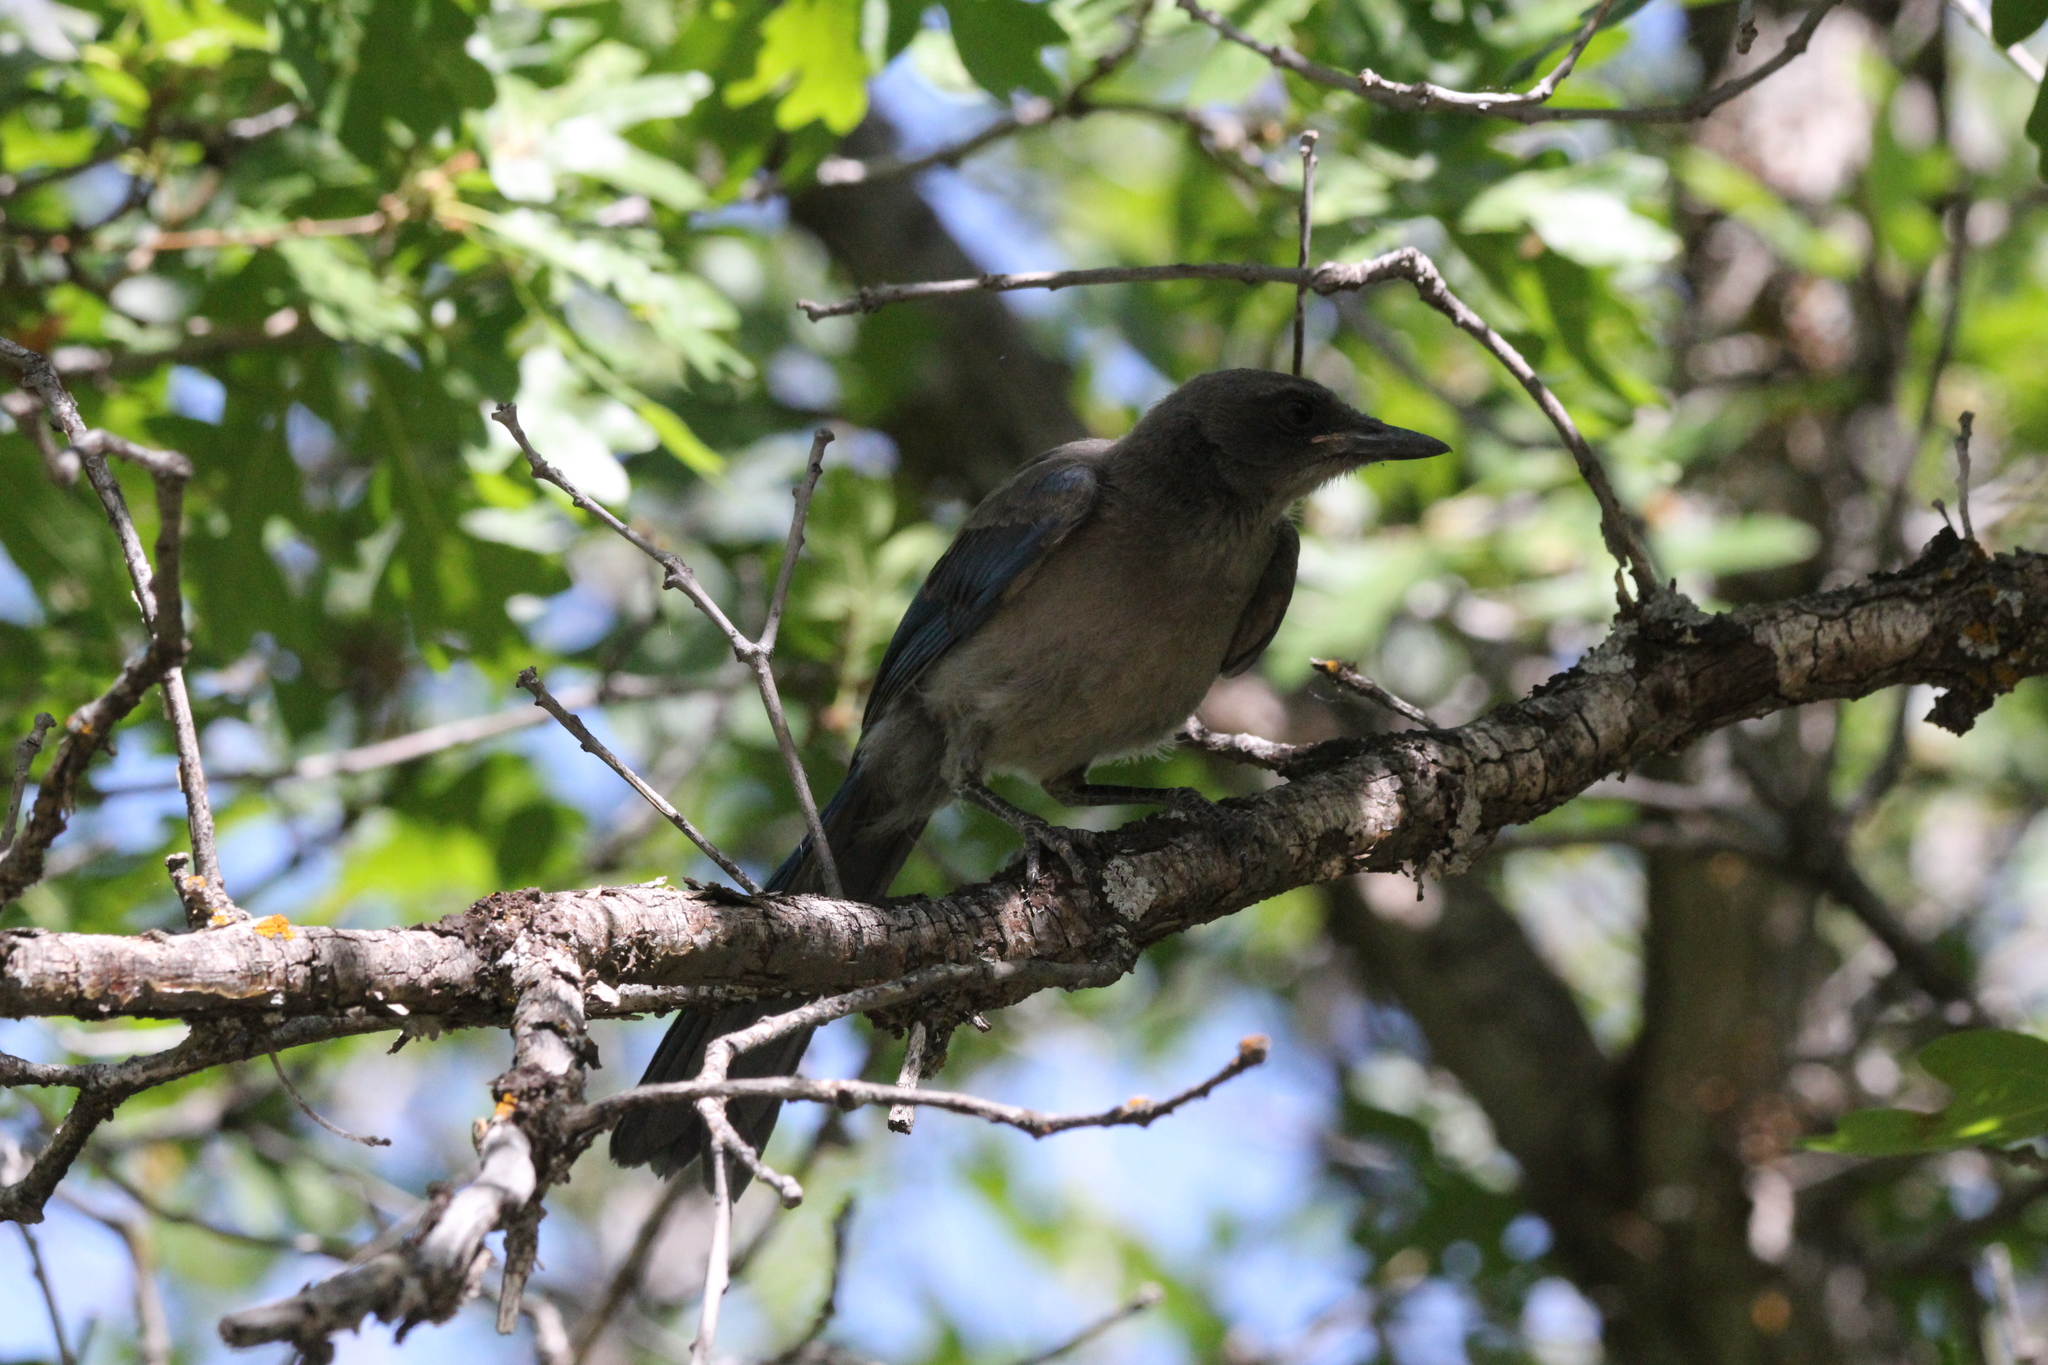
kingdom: Animalia
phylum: Chordata
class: Aves
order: Passeriformes
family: Corvidae
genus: Aphelocoma
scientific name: Aphelocoma woodhouseii
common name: Woodhouse's scrub-jay
